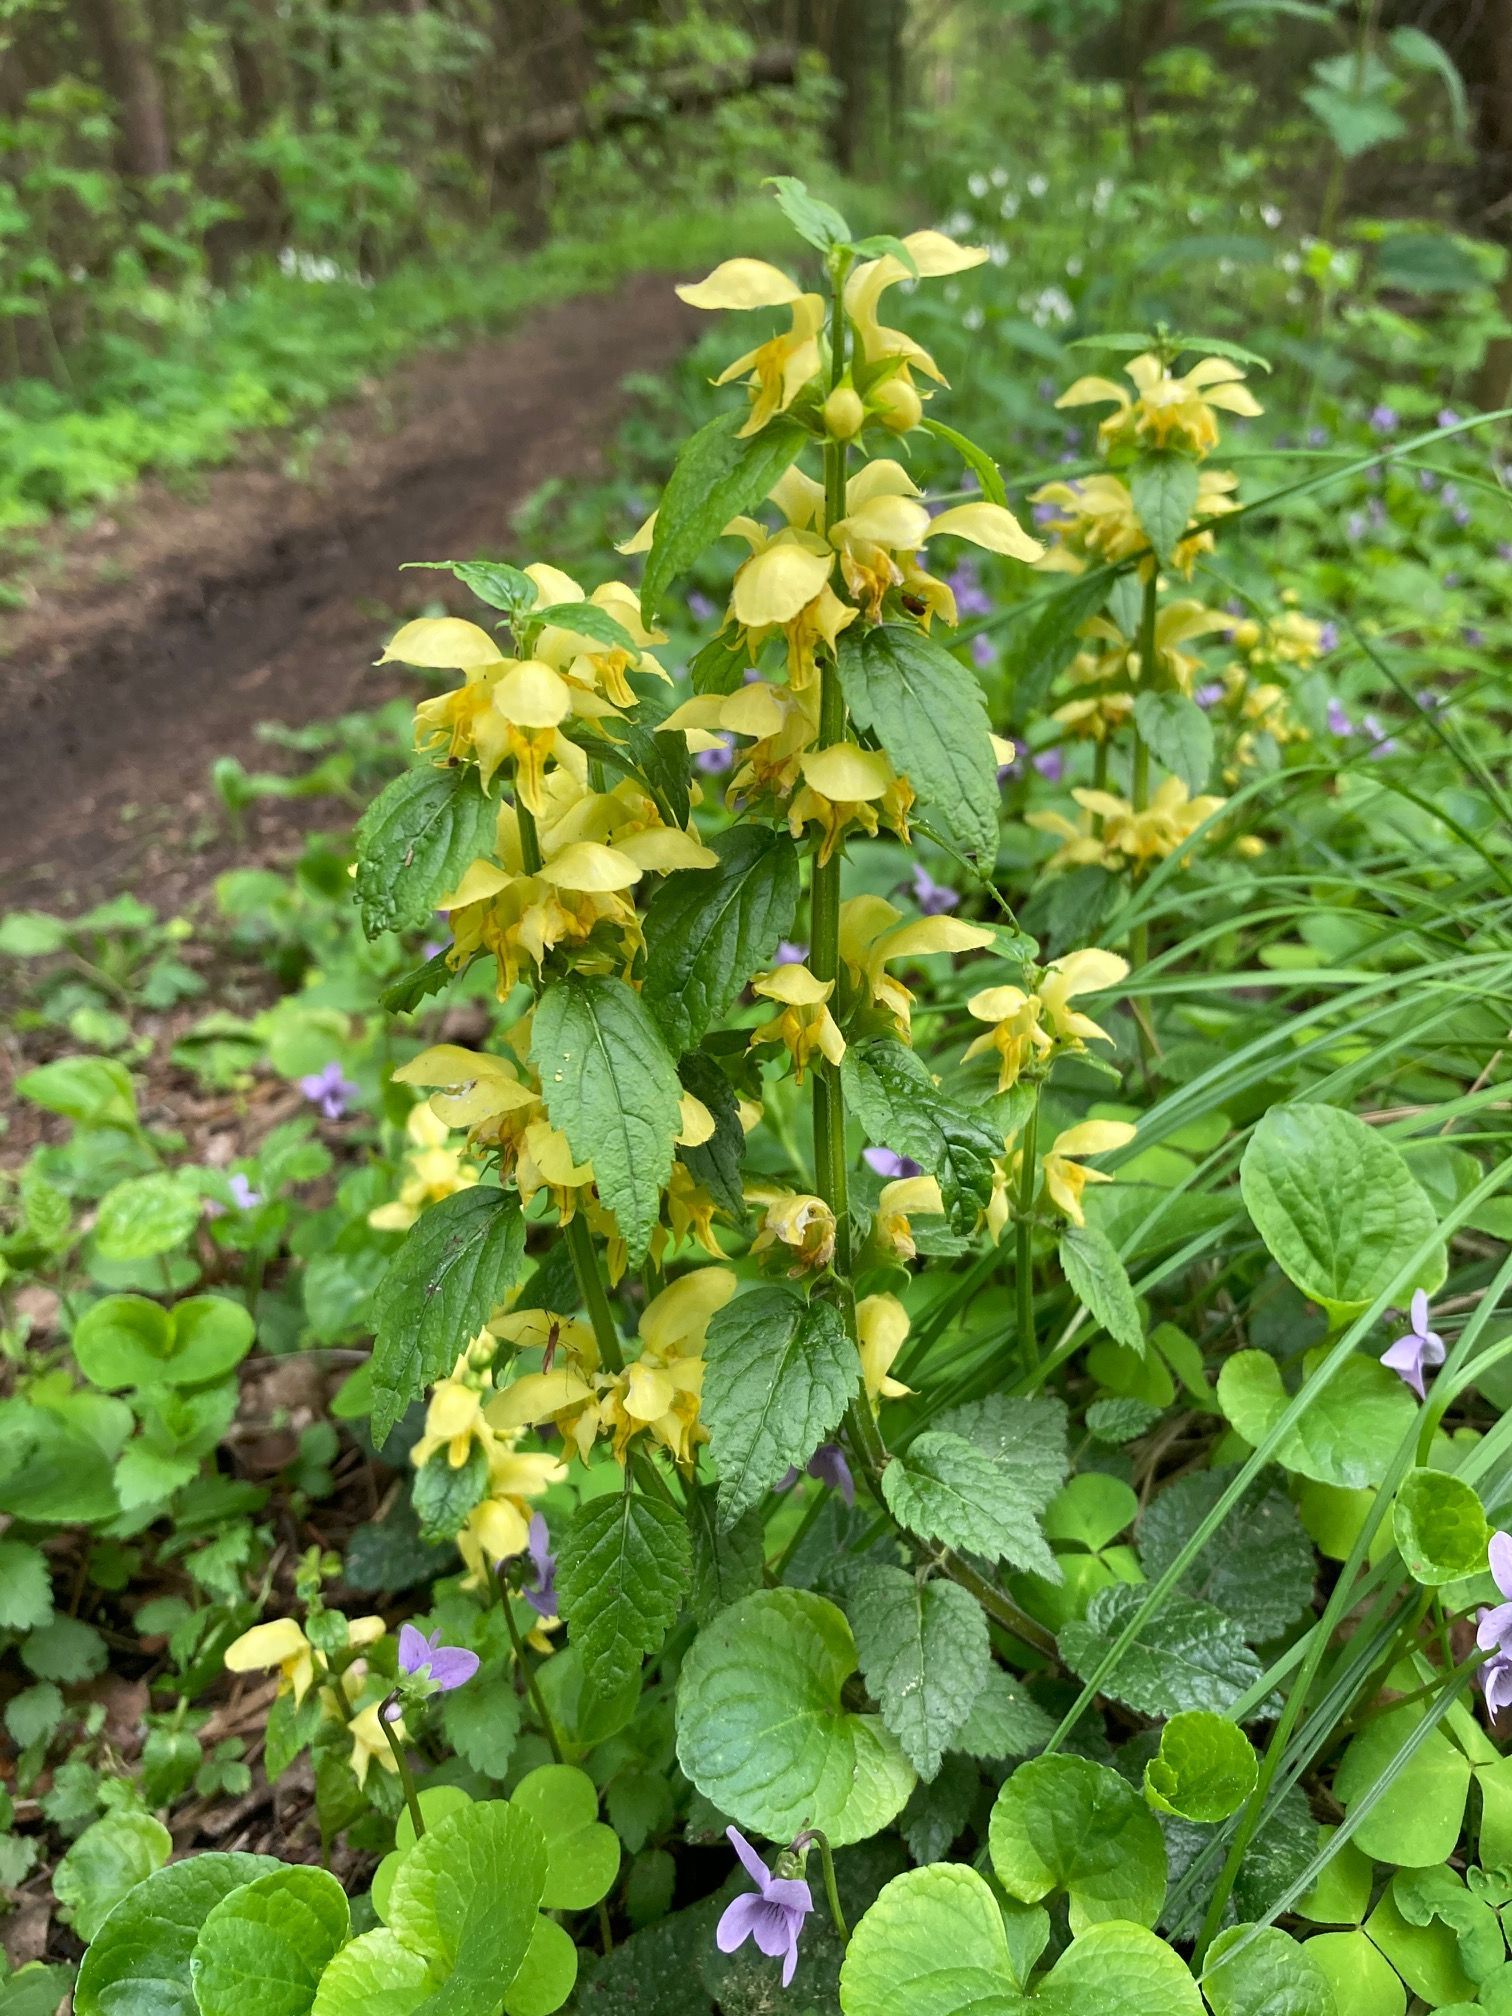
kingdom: Plantae
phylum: Tracheophyta
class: Magnoliopsida
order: Lamiales
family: Lamiaceae
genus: Lamium
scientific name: Lamium galeobdolon
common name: Yellow archangel
